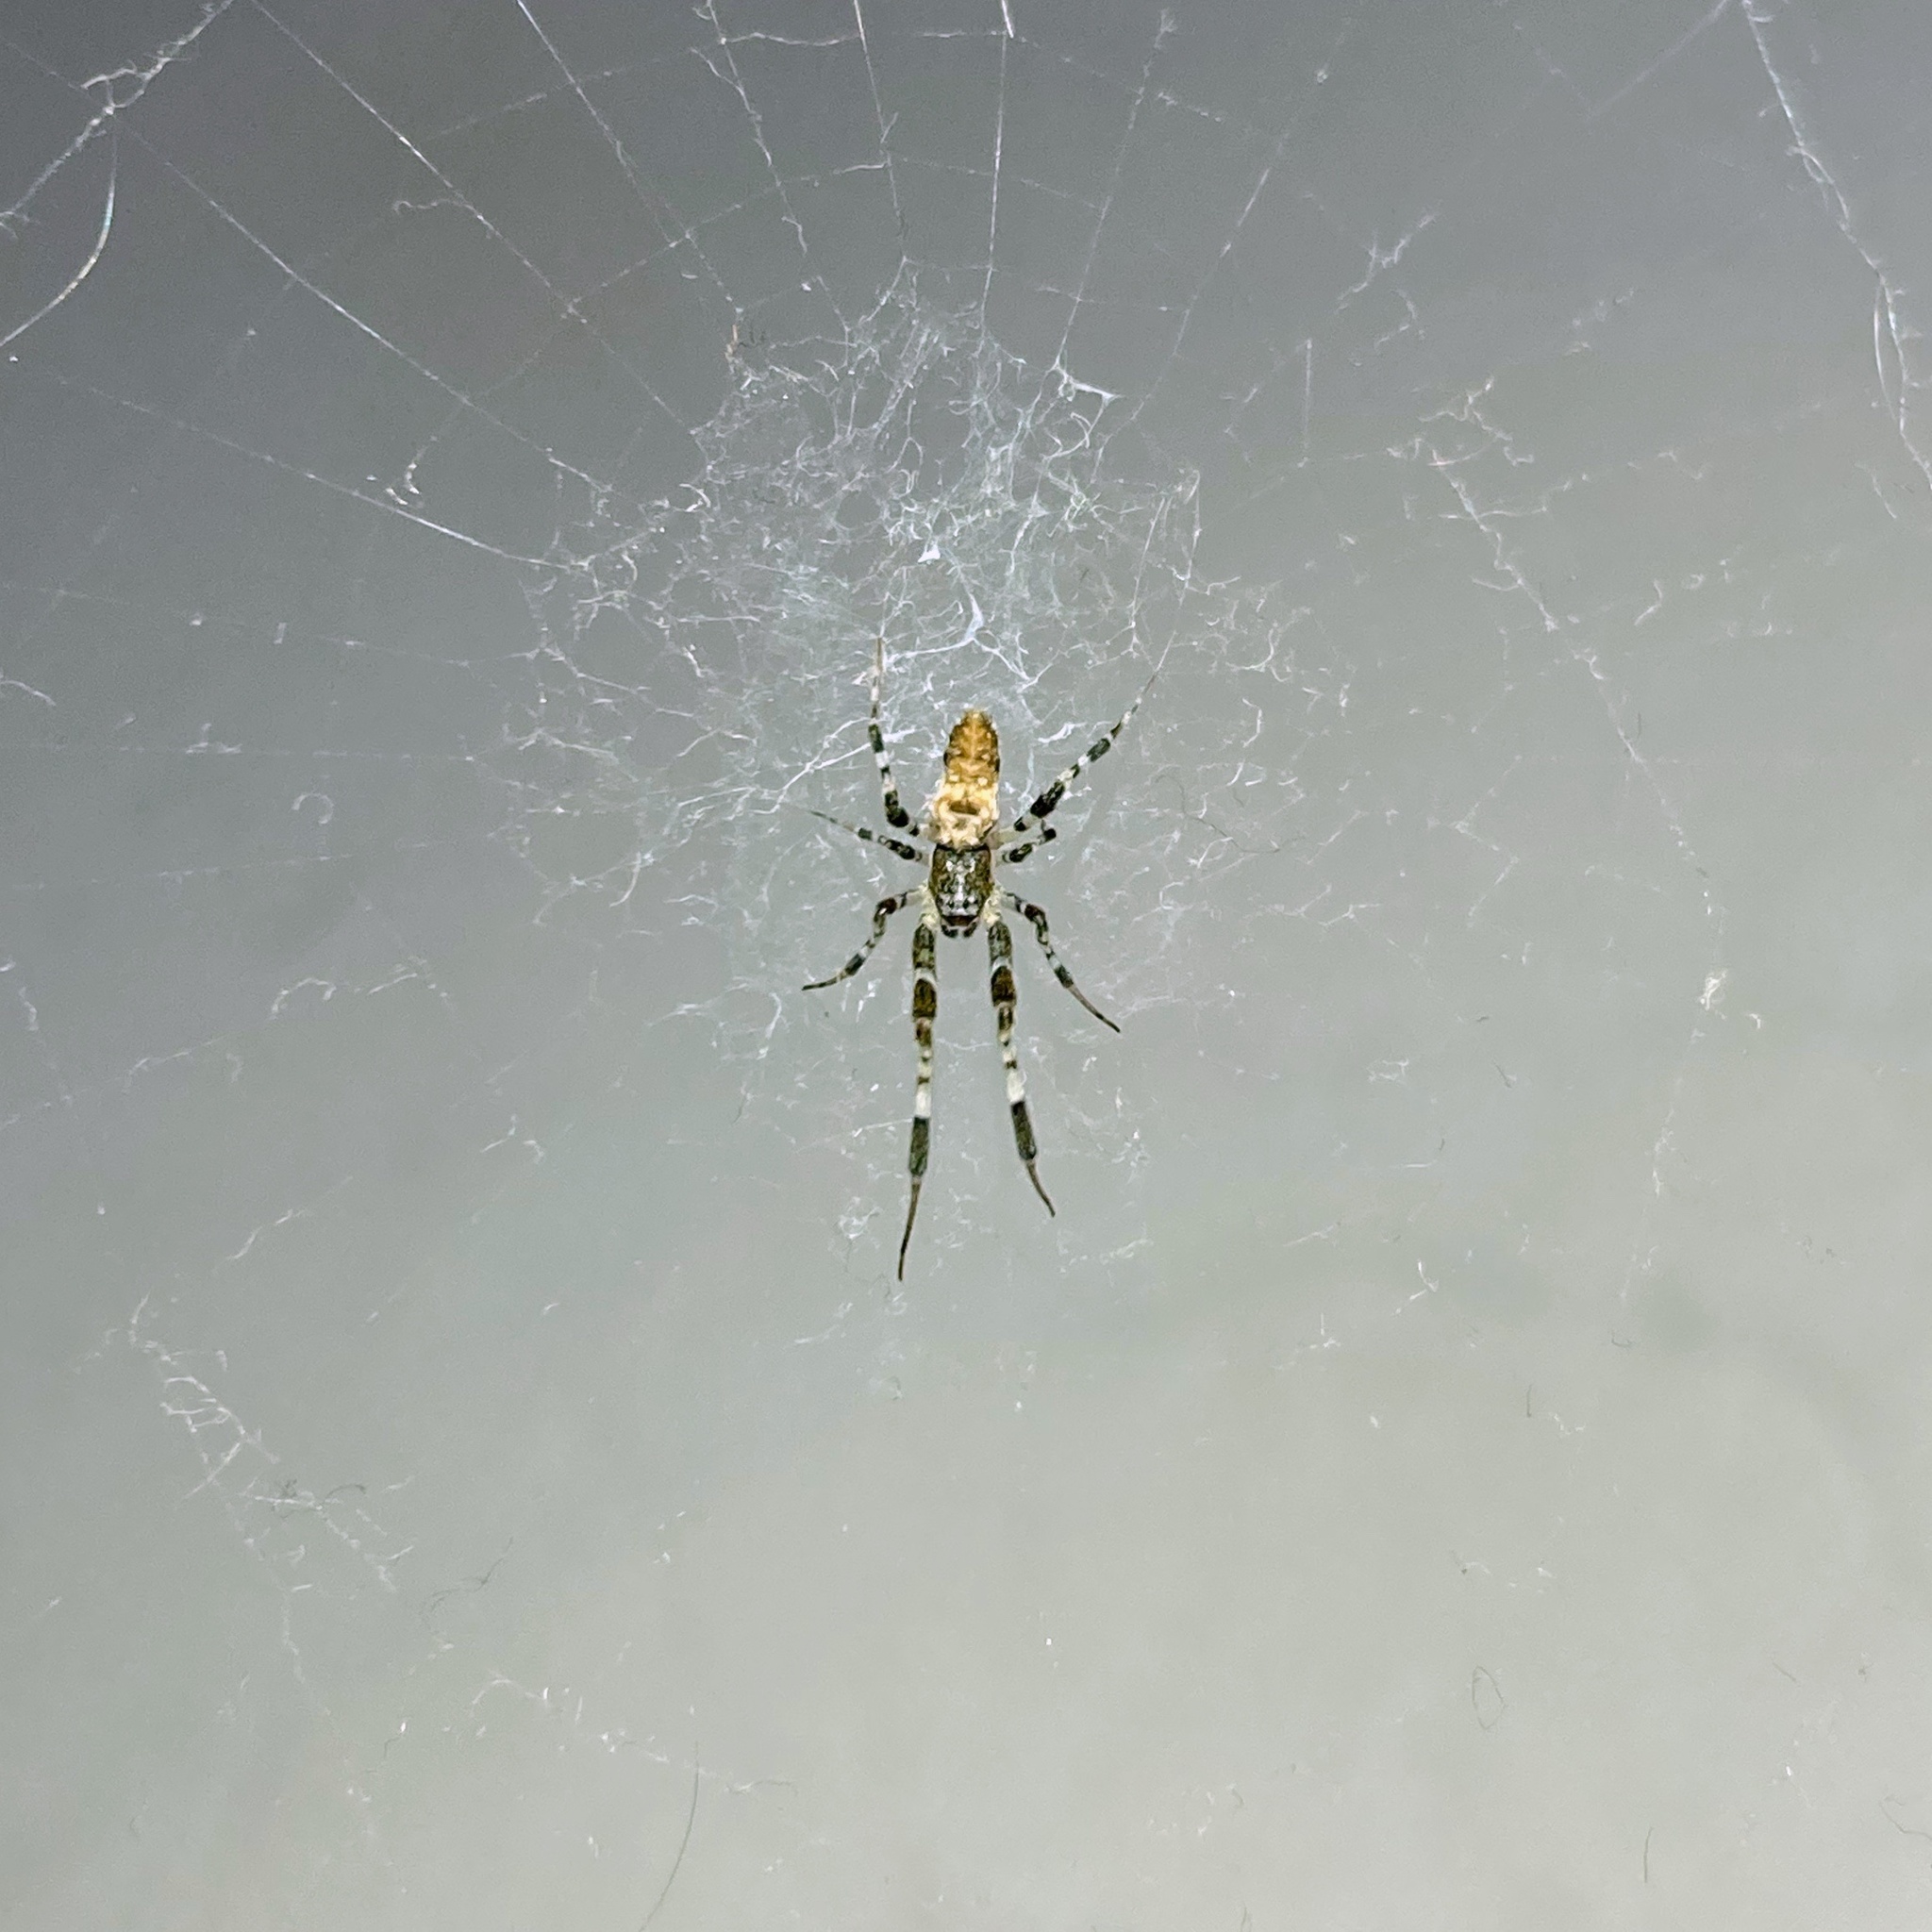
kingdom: Animalia
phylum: Arthropoda
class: Arachnida
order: Araneae
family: Uloboridae
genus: Zosis
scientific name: Zosis geniculata
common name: Hackled orb weavers
